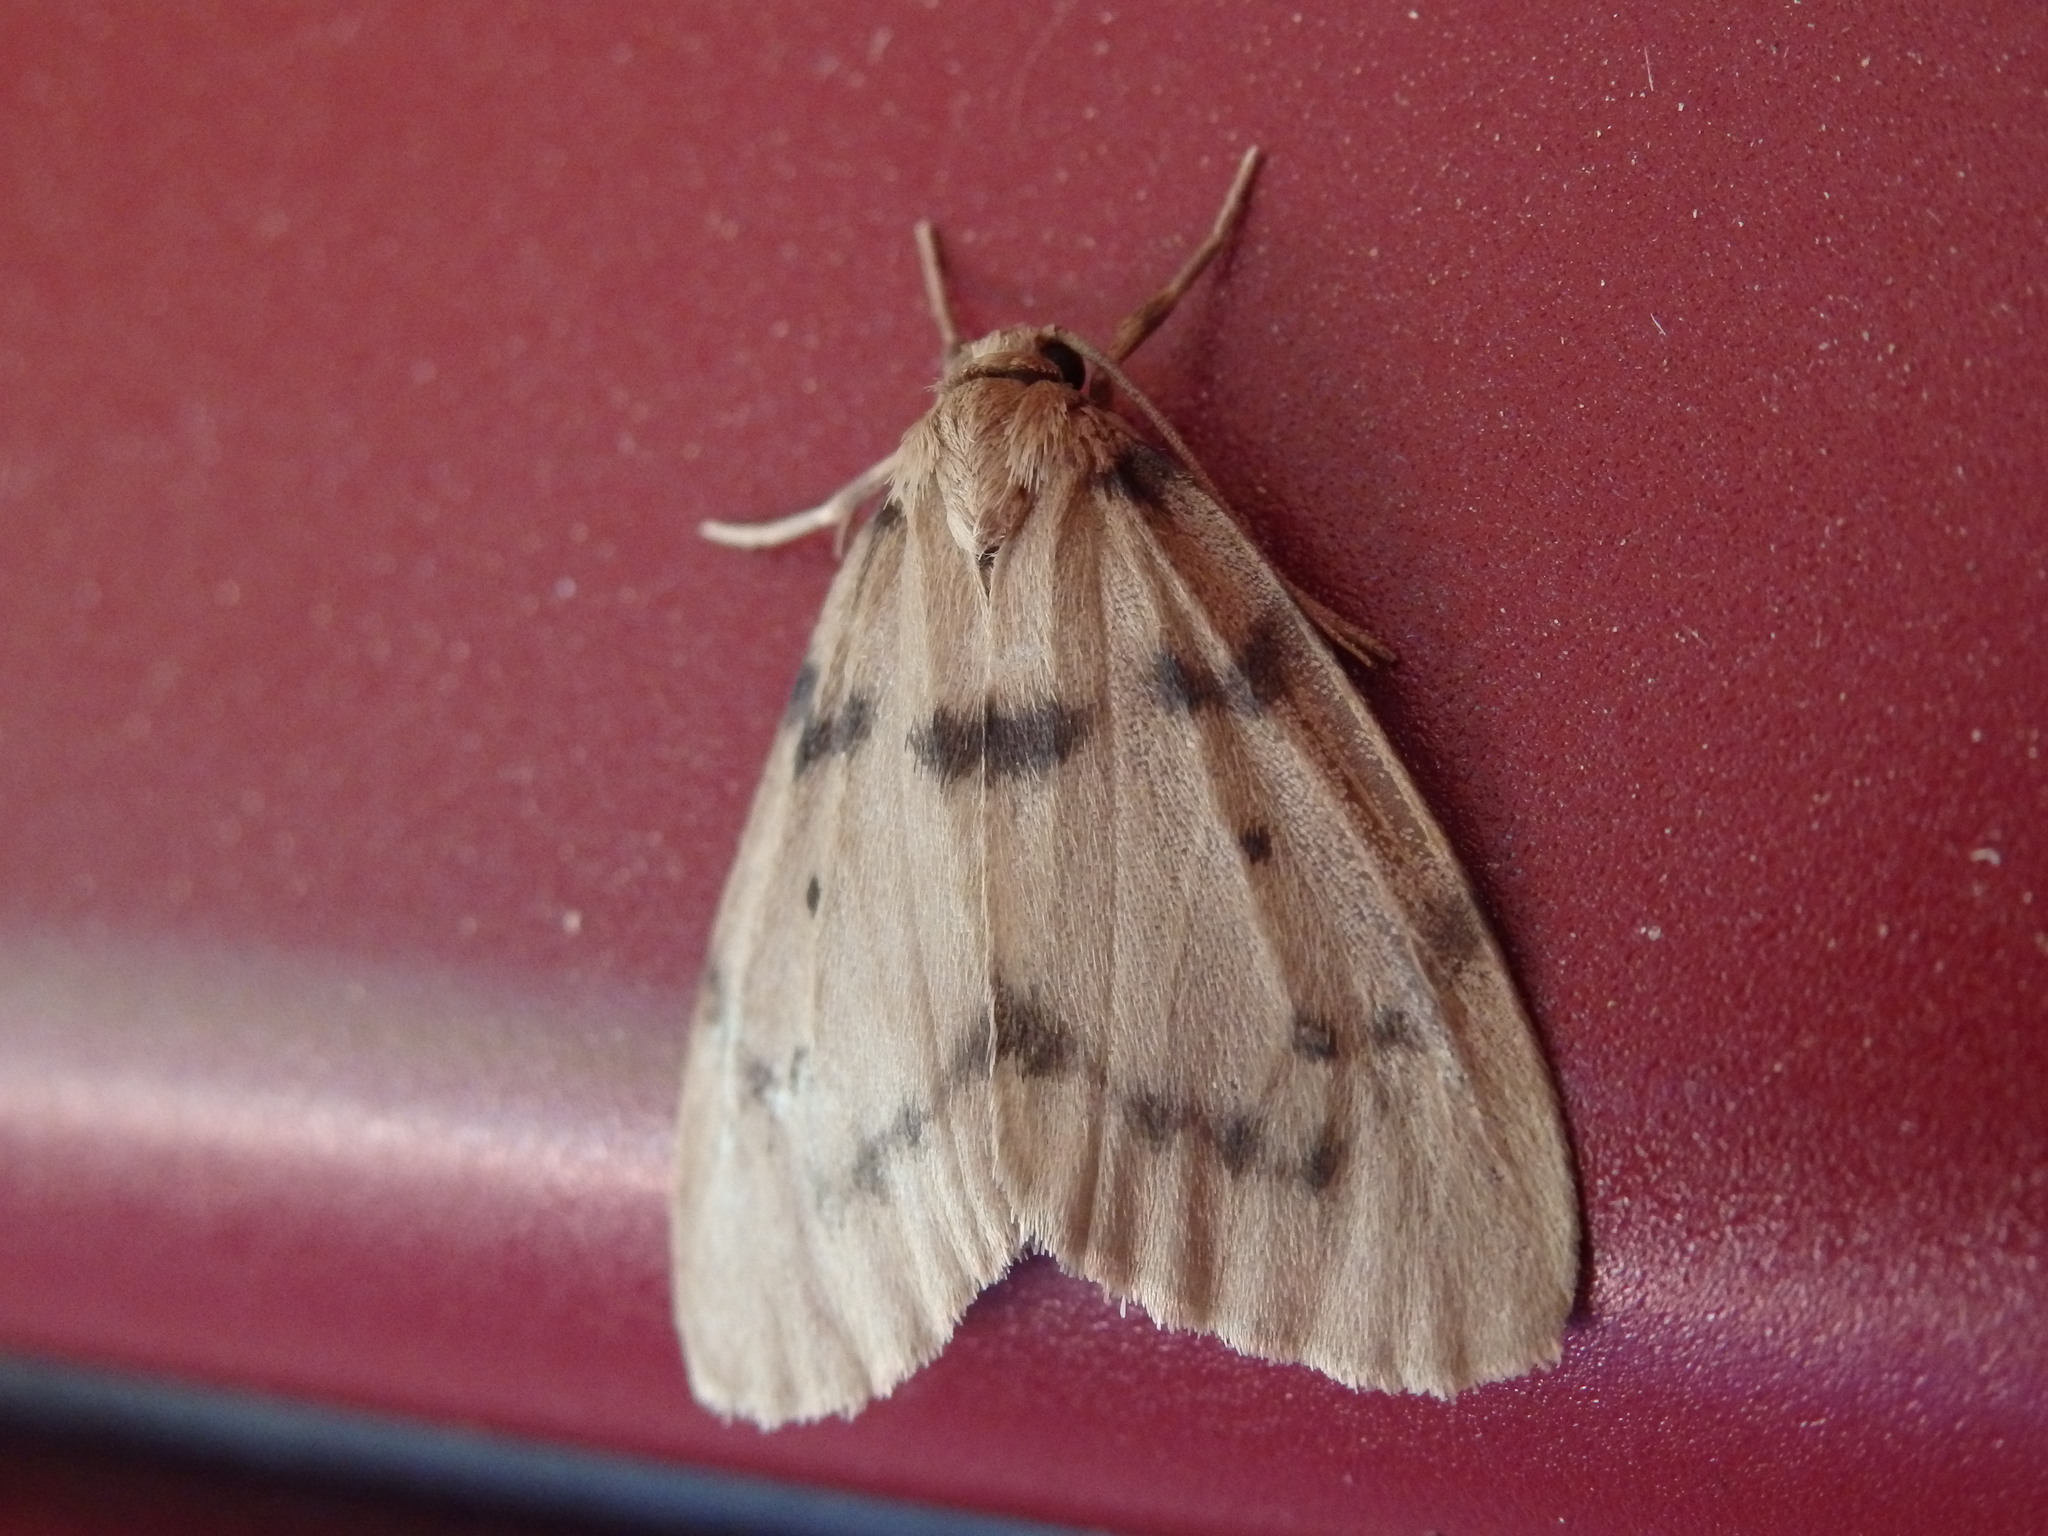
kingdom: Animalia
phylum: Arthropoda
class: Insecta
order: Lepidoptera
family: Erebidae
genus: Paidia
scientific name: Paidia rica
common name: Glaucous muslin
